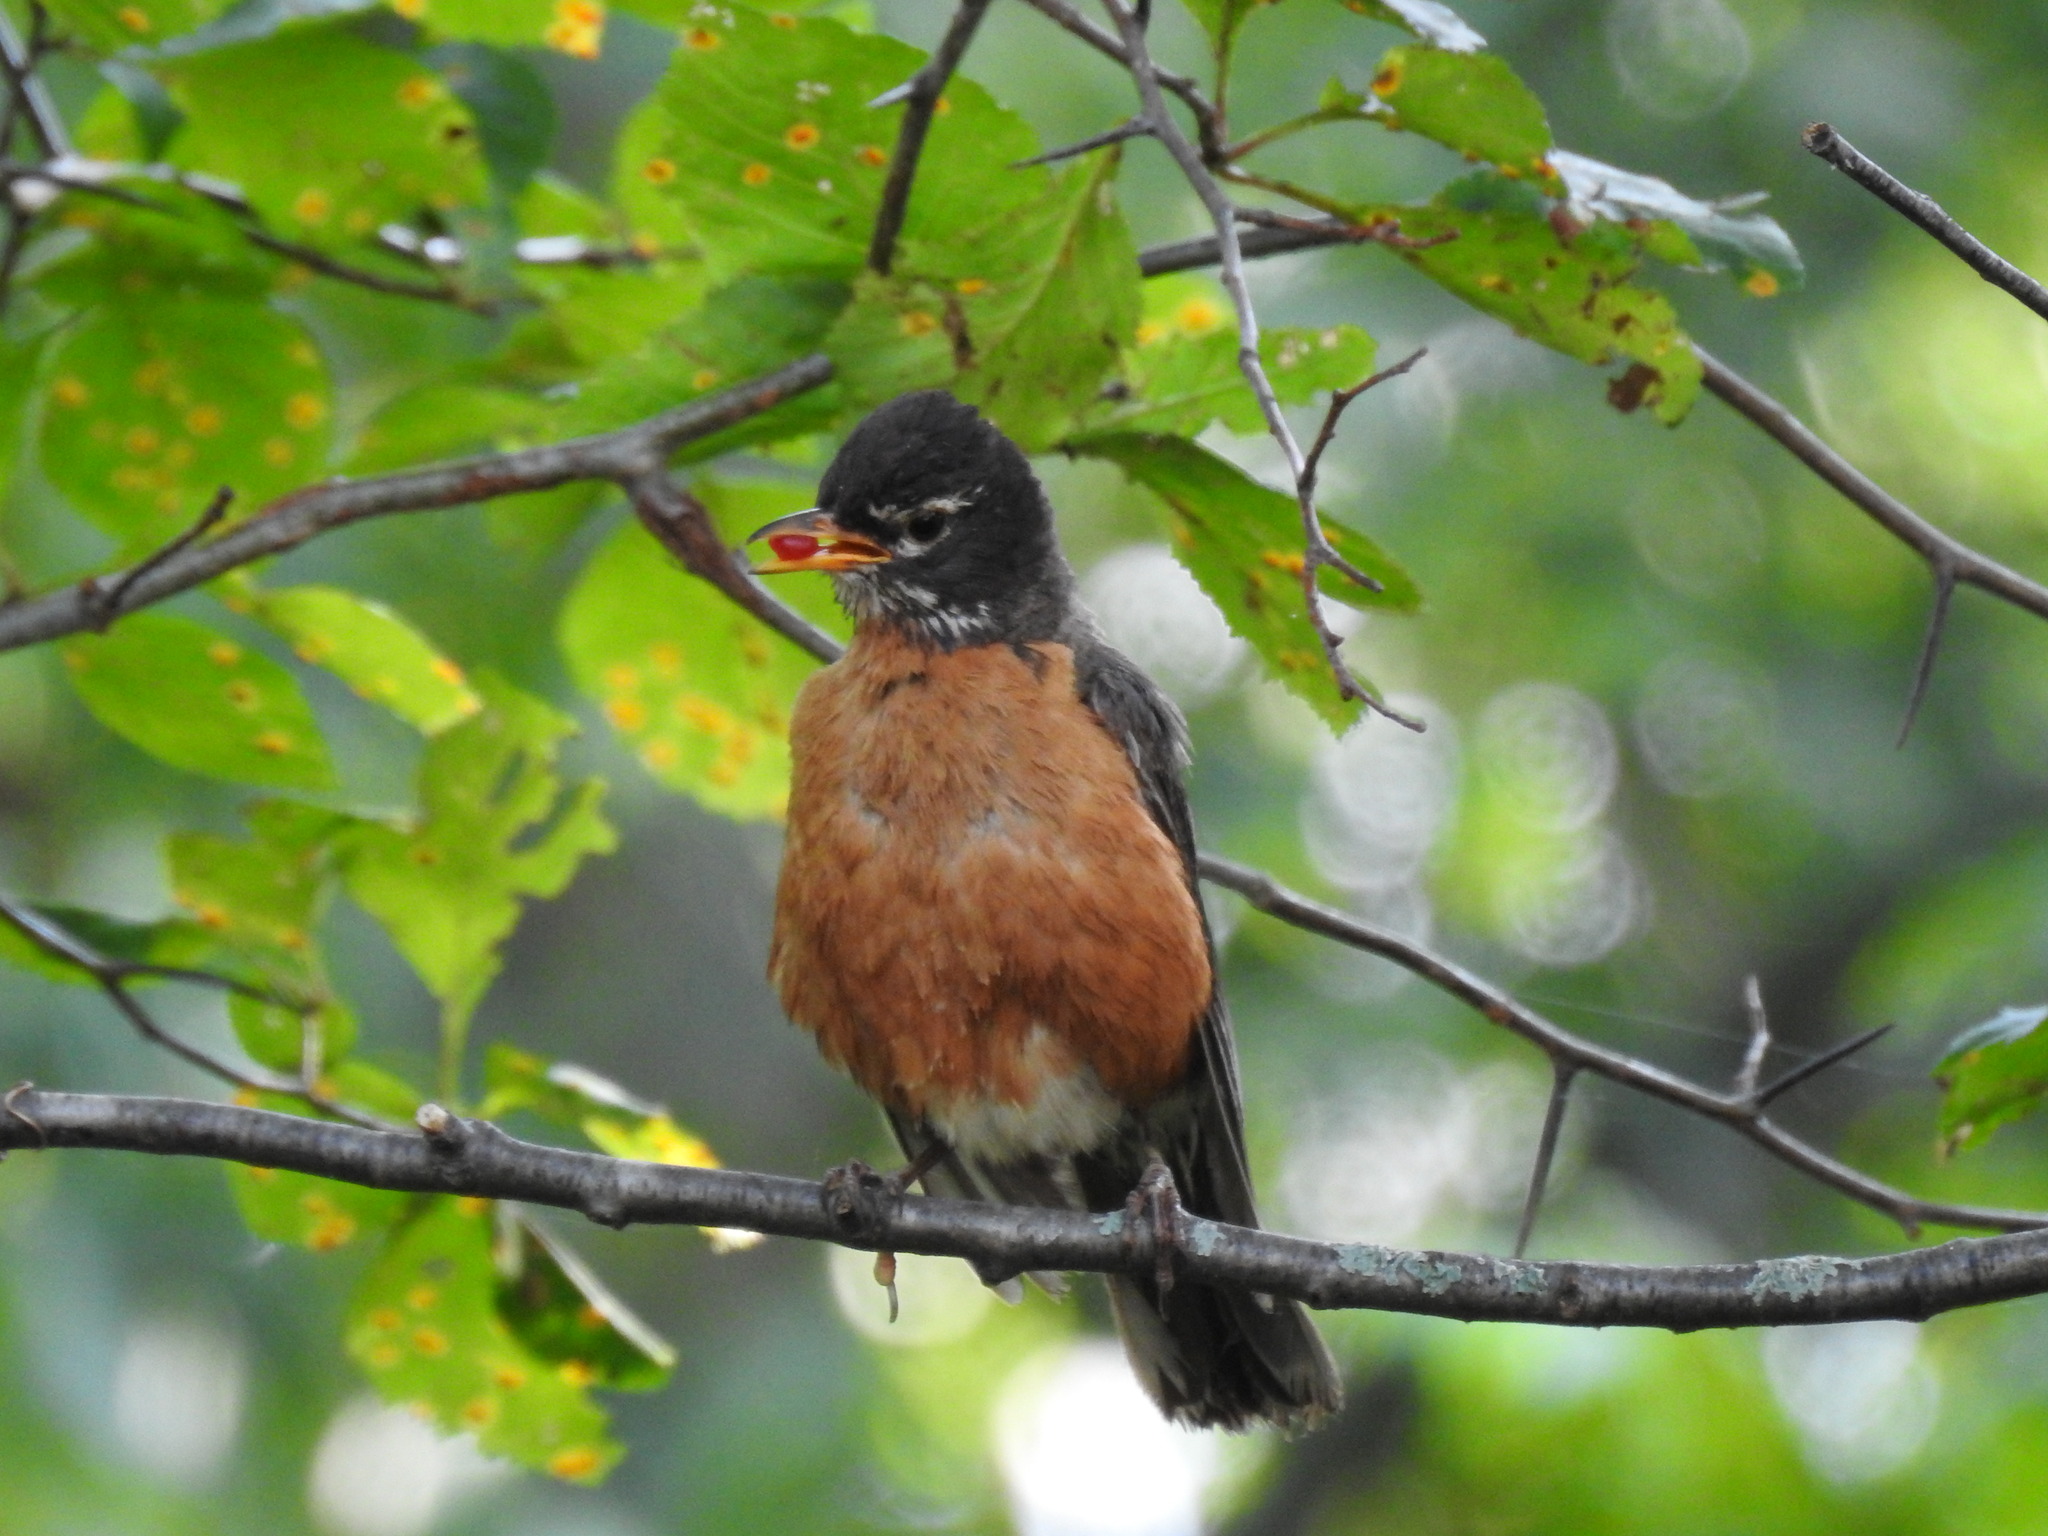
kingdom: Animalia
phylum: Chordata
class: Aves
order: Passeriformes
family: Turdidae
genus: Turdus
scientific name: Turdus migratorius
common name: American robin
